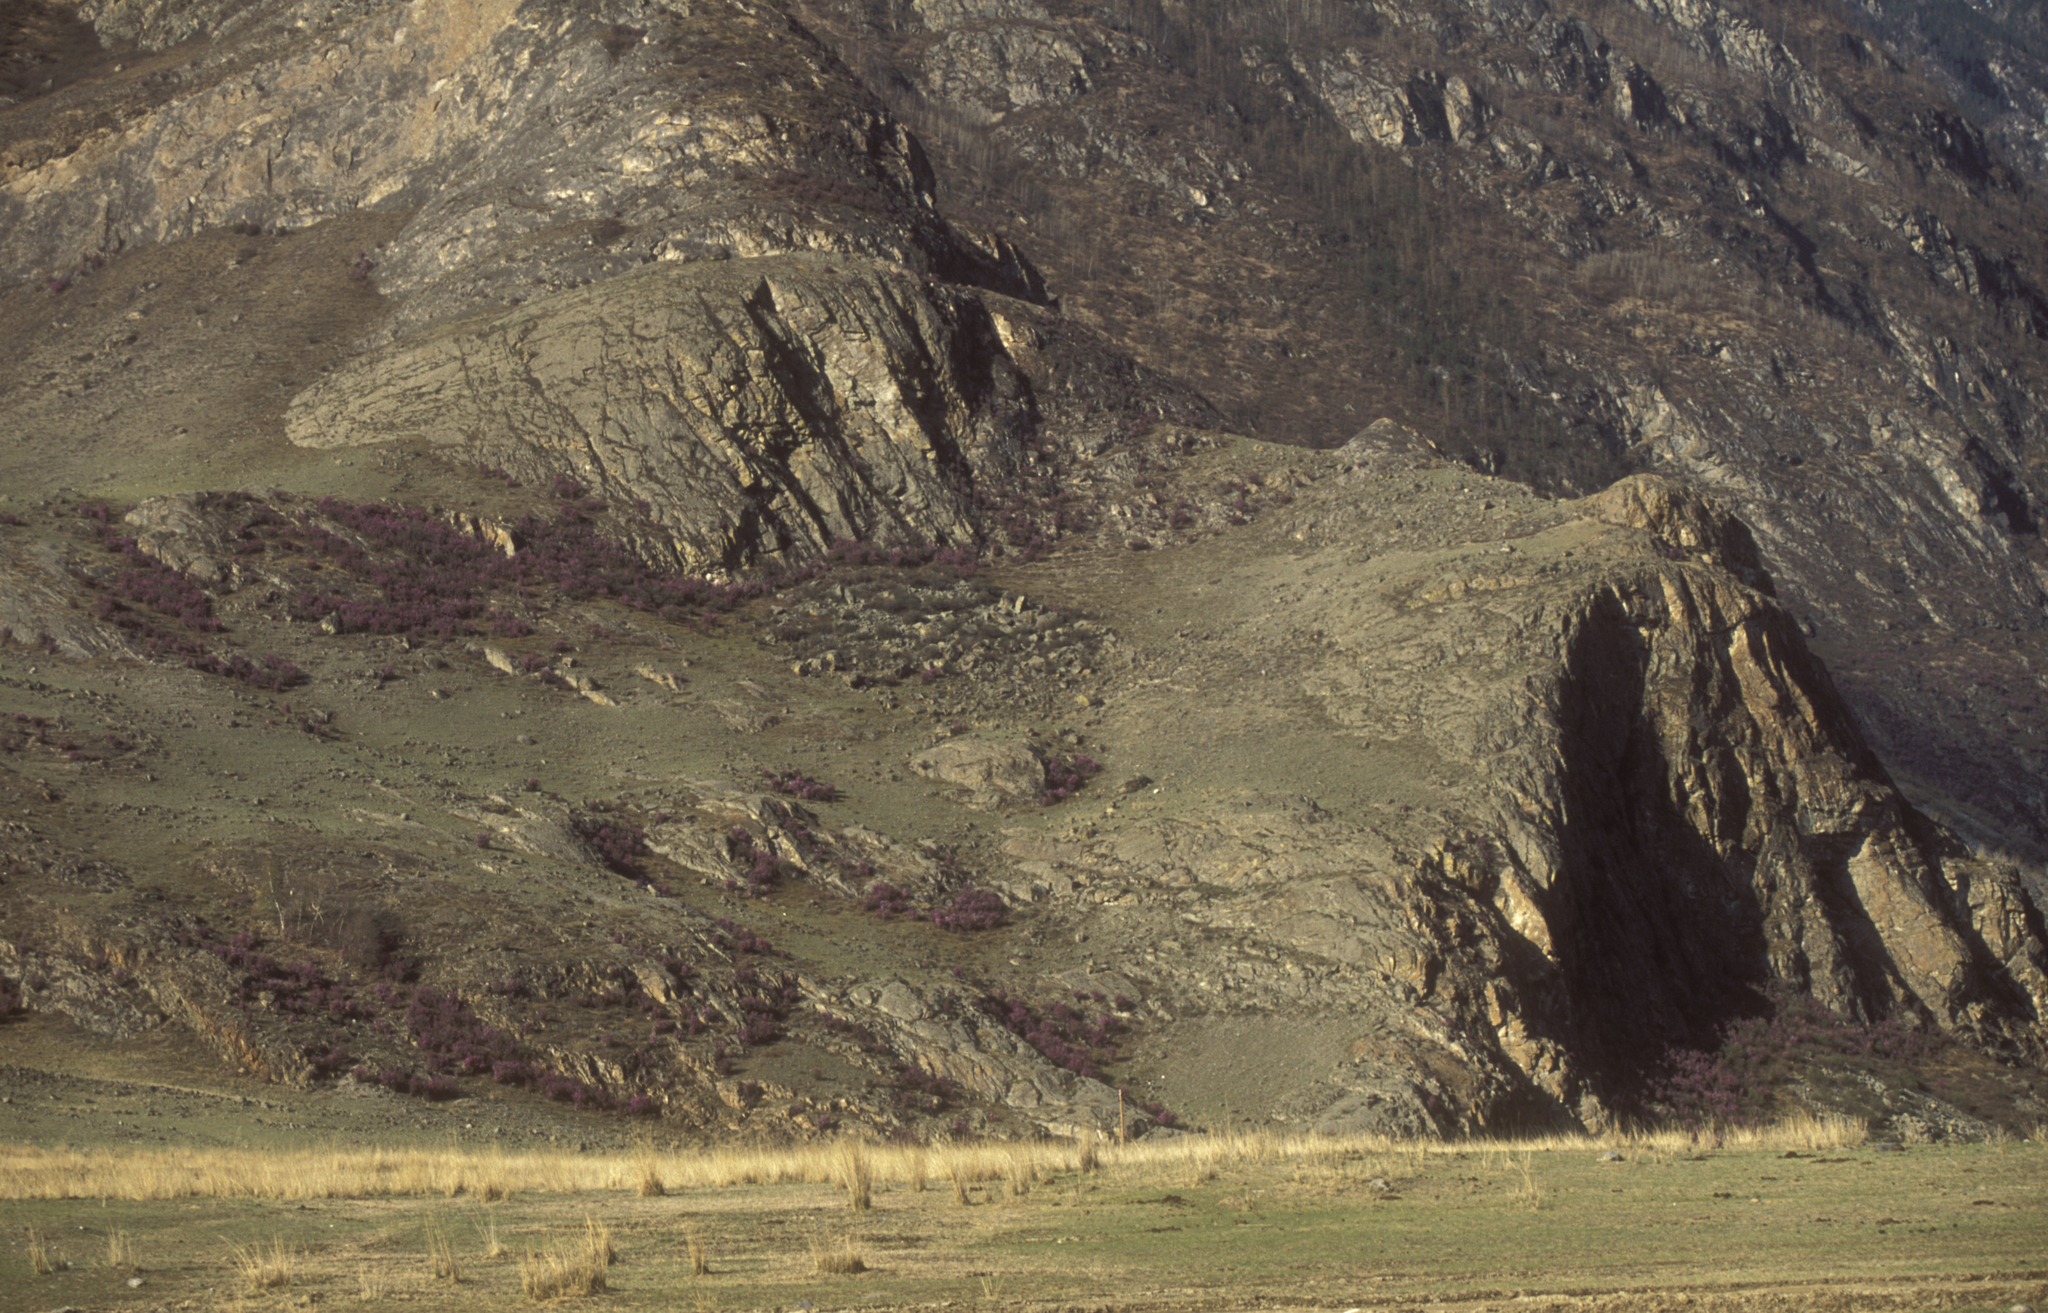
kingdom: Plantae
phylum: Tracheophyta
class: Magnoliopsida
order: Ericales
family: Ericaceae
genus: Rhododendron
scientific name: Rhododendron dauricum
